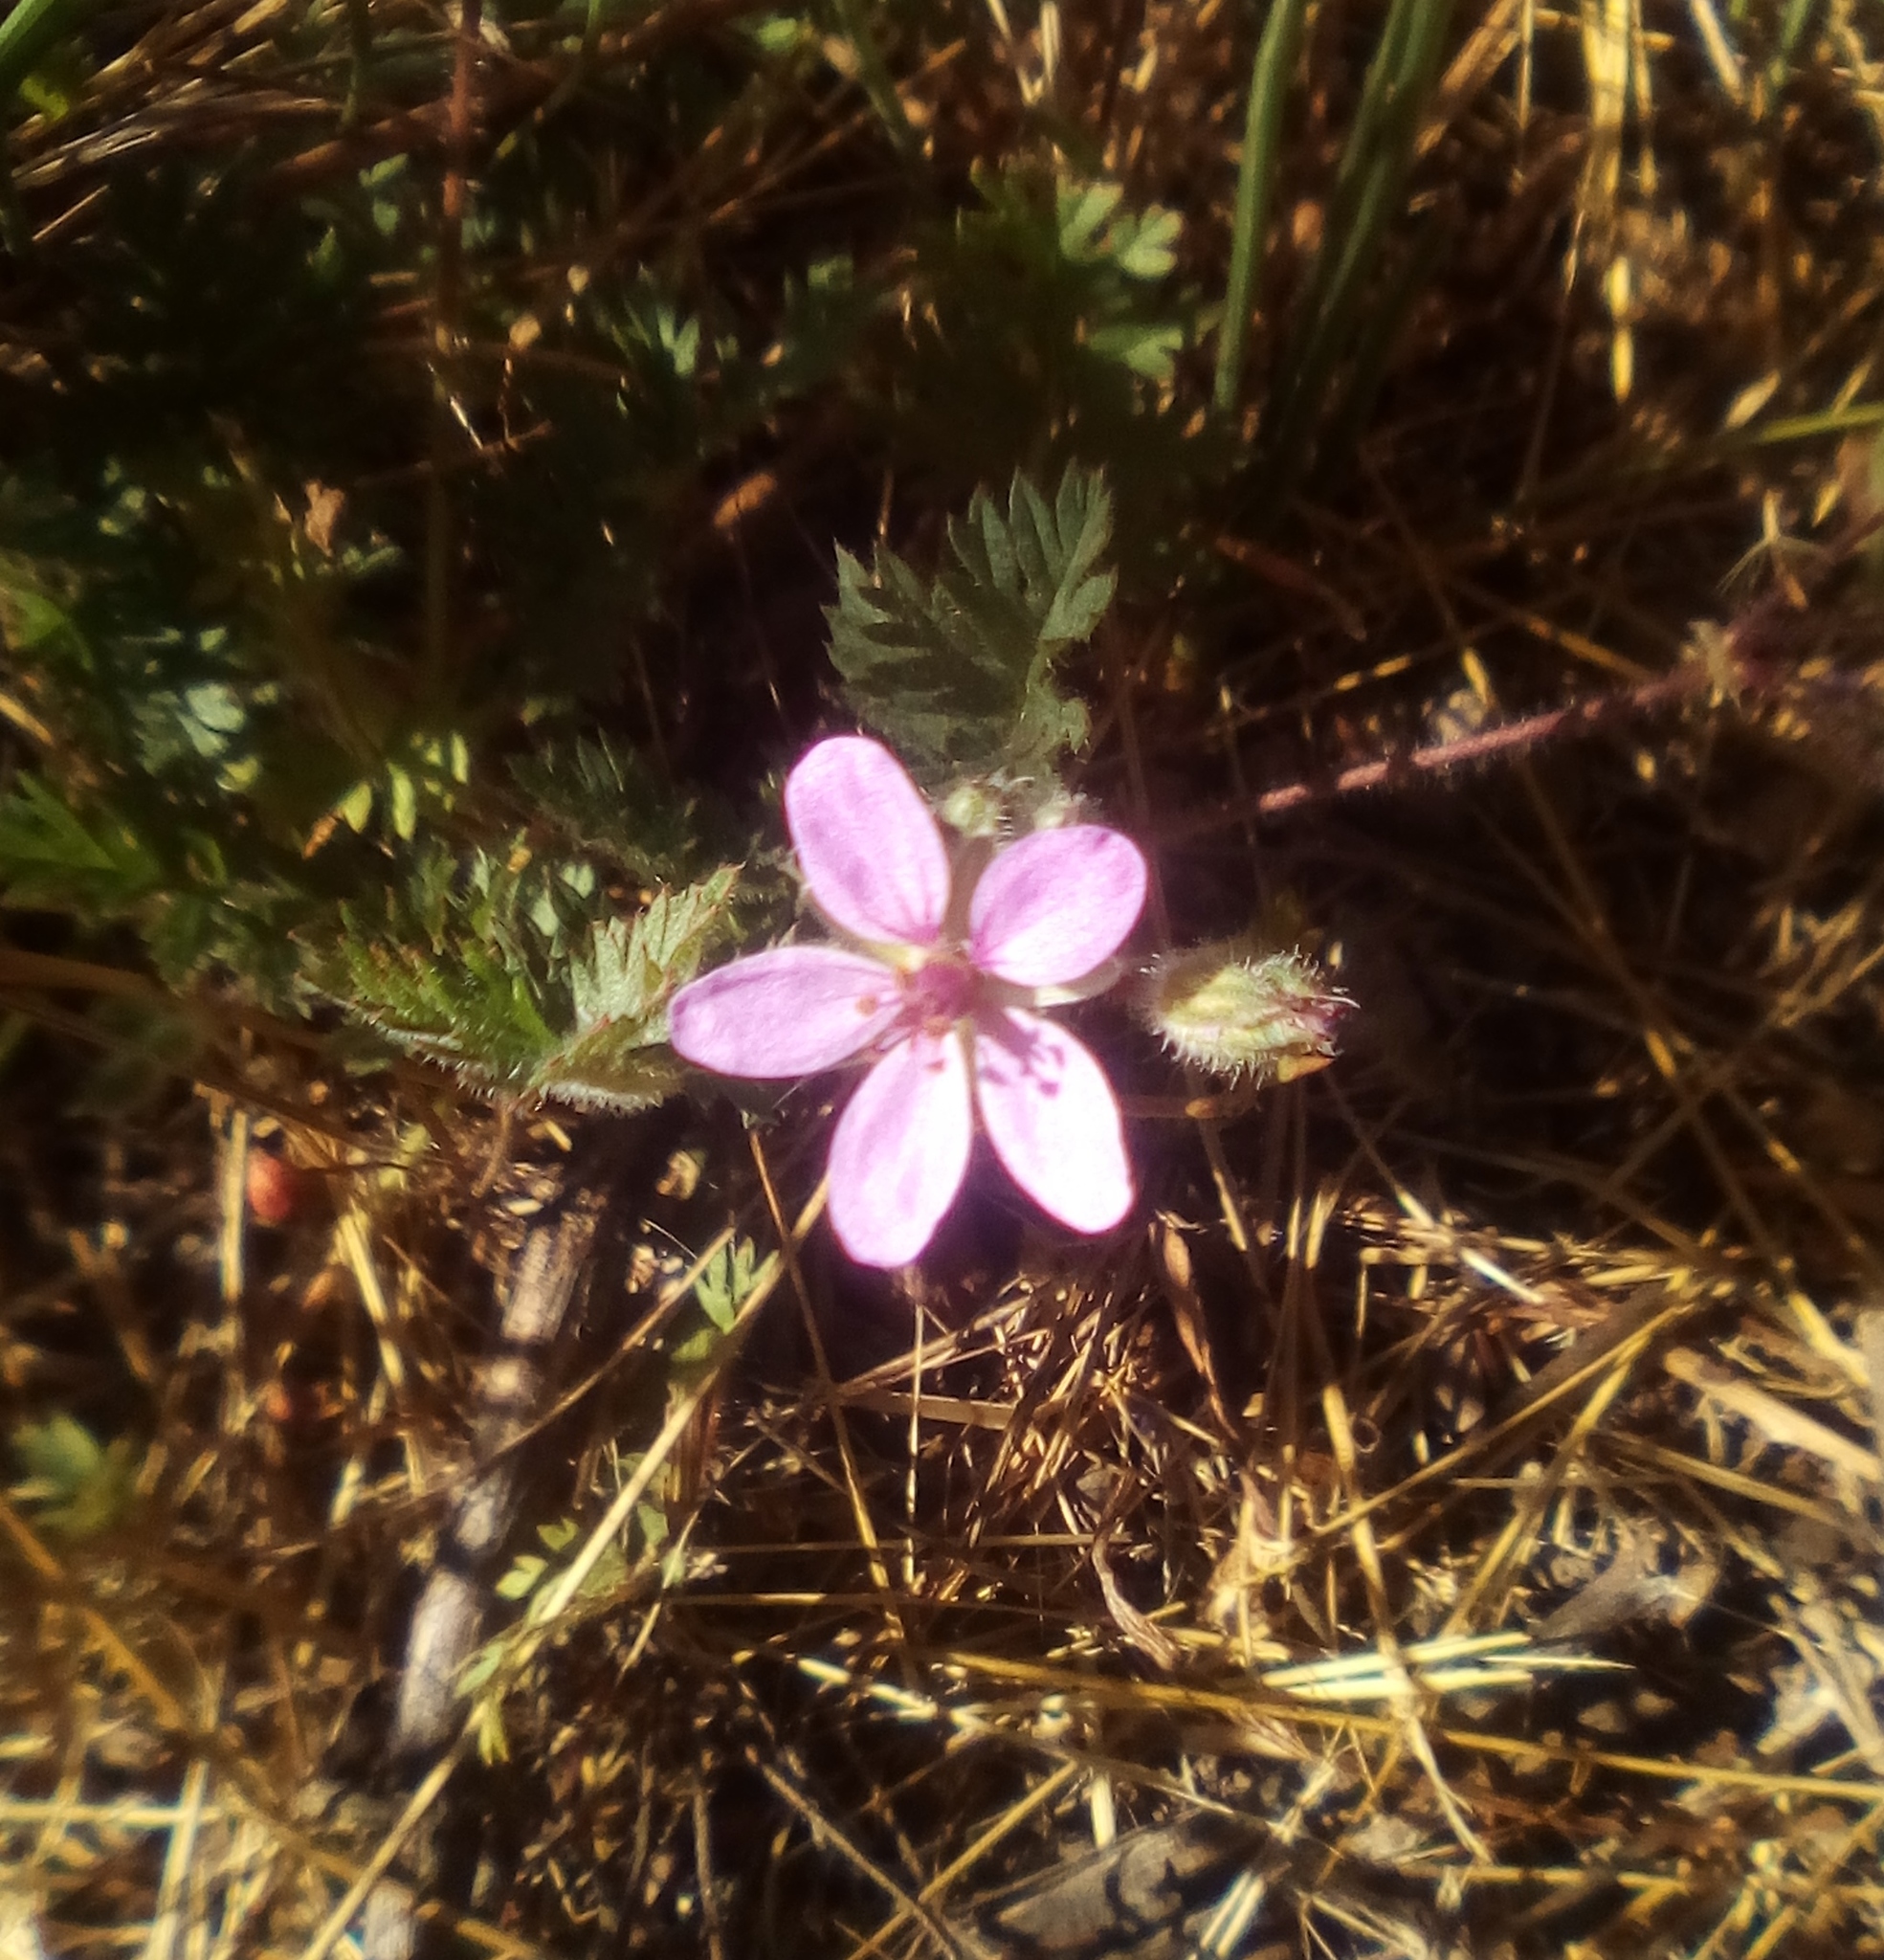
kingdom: Plantae
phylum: Tracheophyta
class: Magnoliopsida
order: Geraniales
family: Geraniaceae
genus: Erodium
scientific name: Erodium cicutarium
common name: Common stork's-bill
